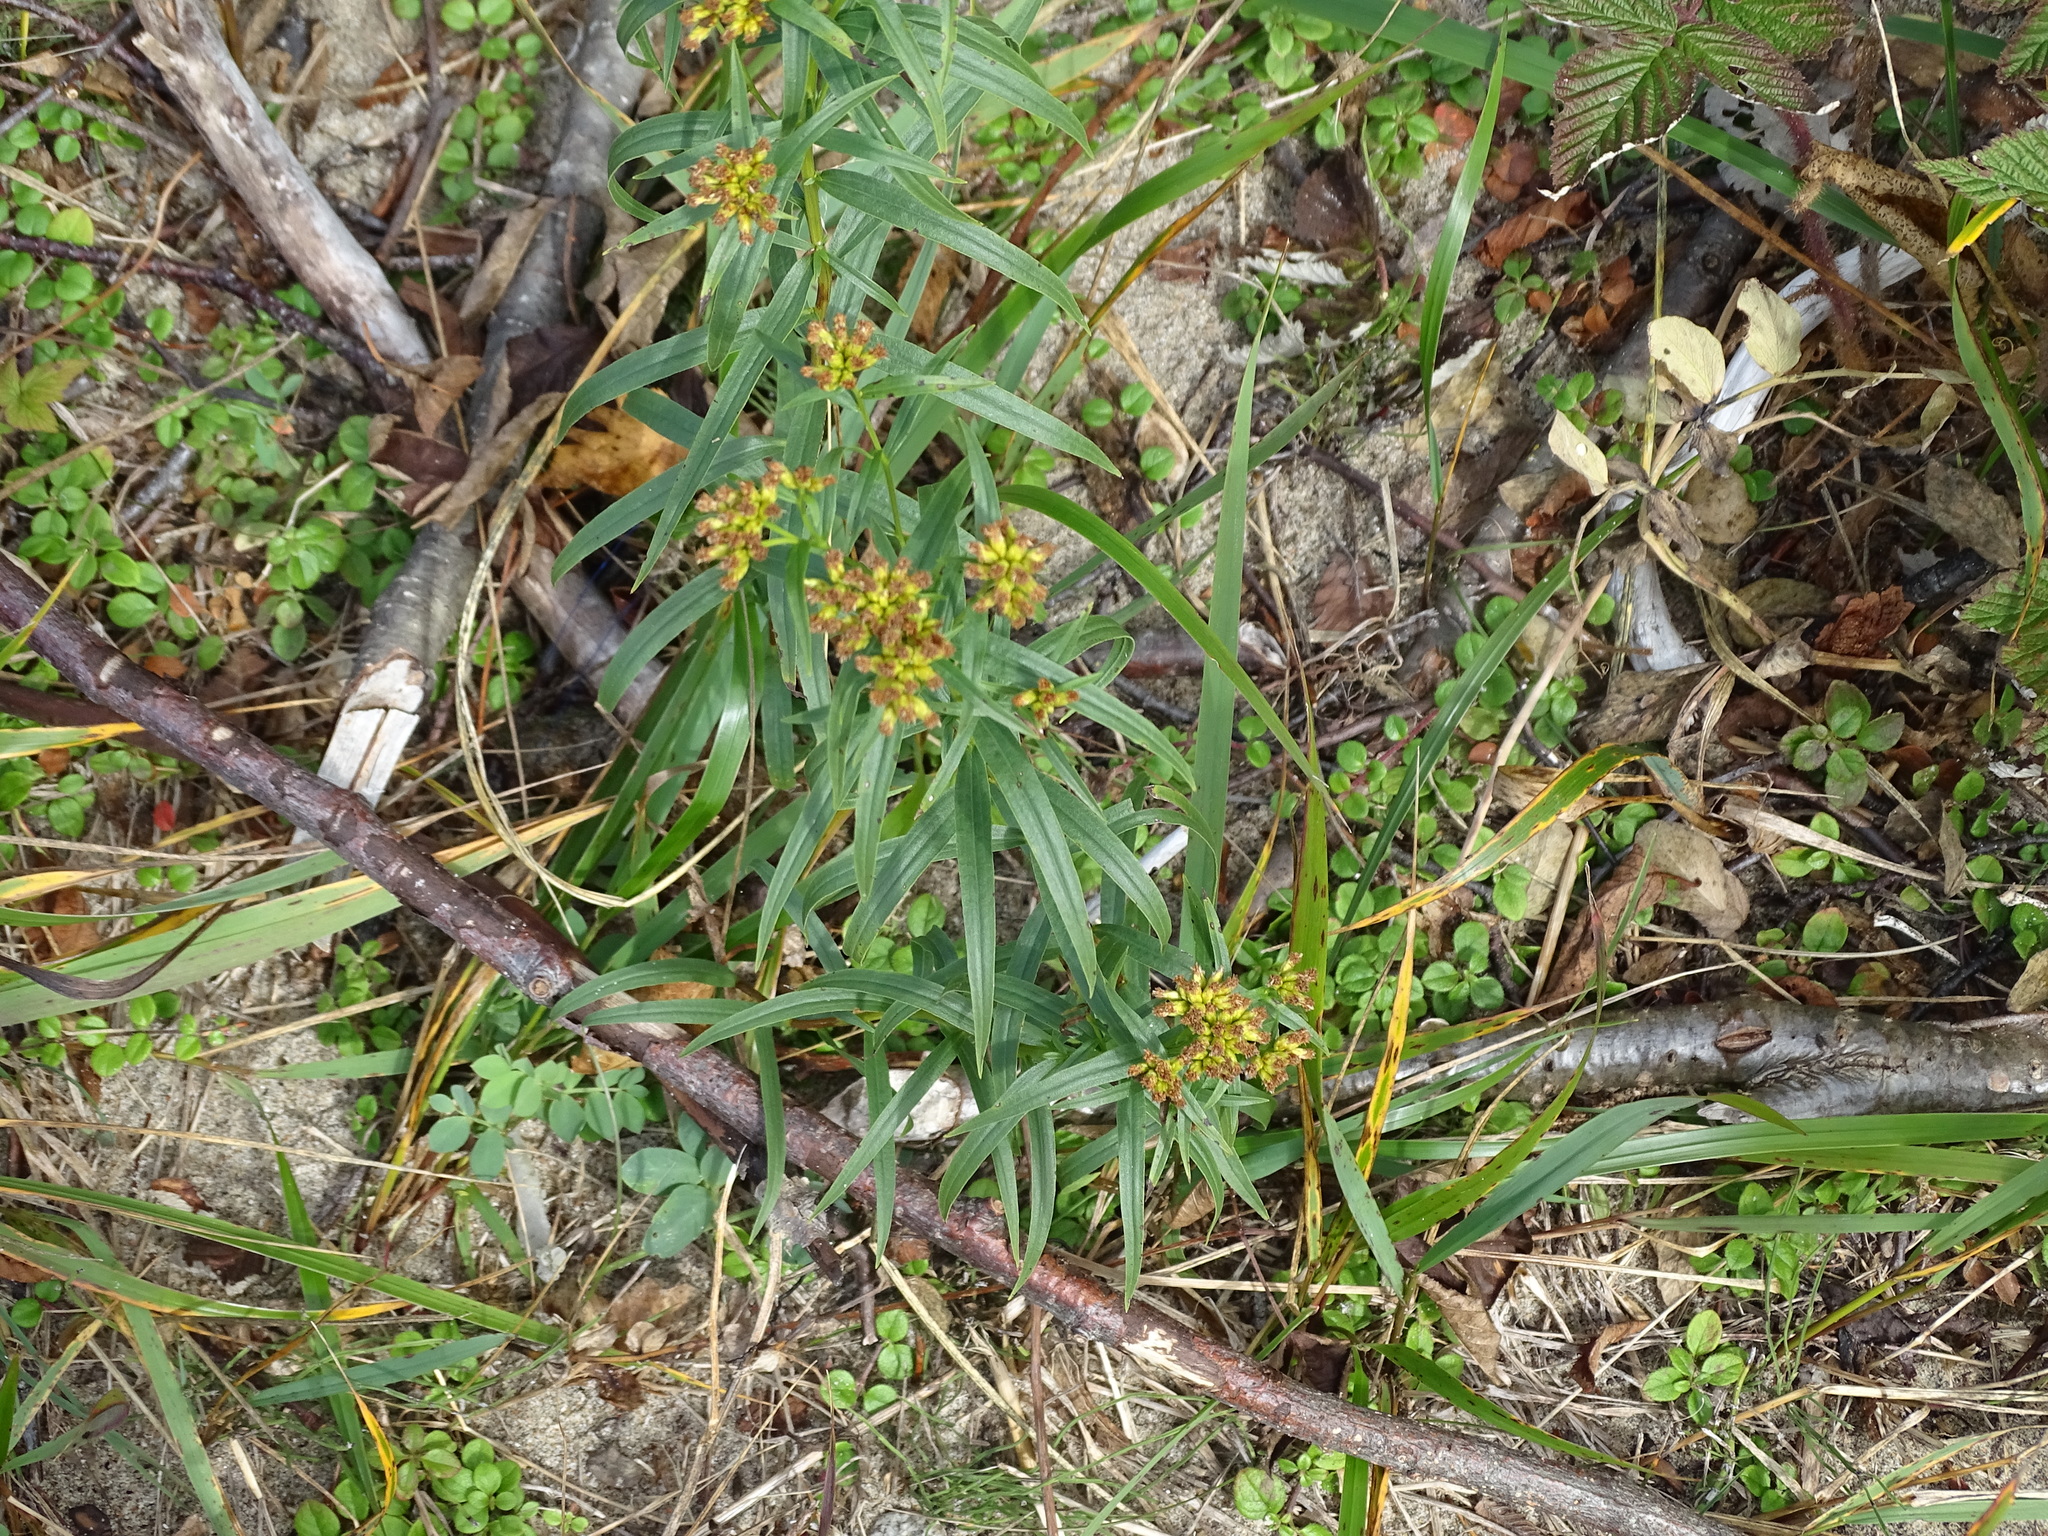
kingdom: Plantae
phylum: Tracheophyta
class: Magnoliopsida
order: Asterales
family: Asteraceae
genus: Euthamia
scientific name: Euthamia graminifolia
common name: Common goldentop
